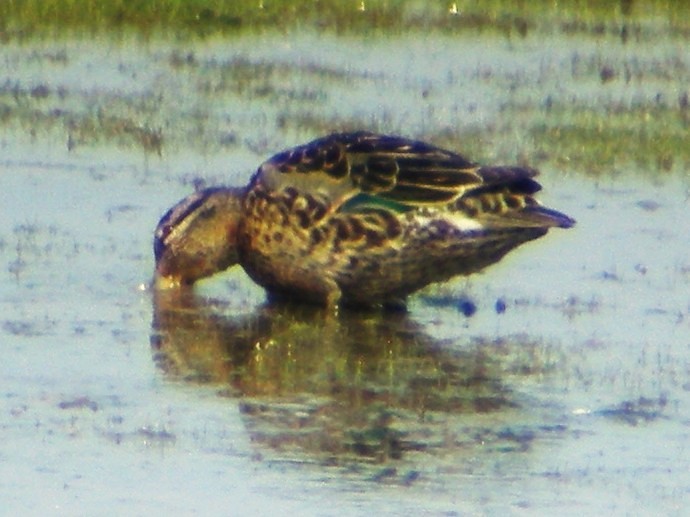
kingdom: Animalia
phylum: Chordata
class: Aves
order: Anseriformes
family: Anatidae
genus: Anas
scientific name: Anas crecca
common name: Eurasian teal
